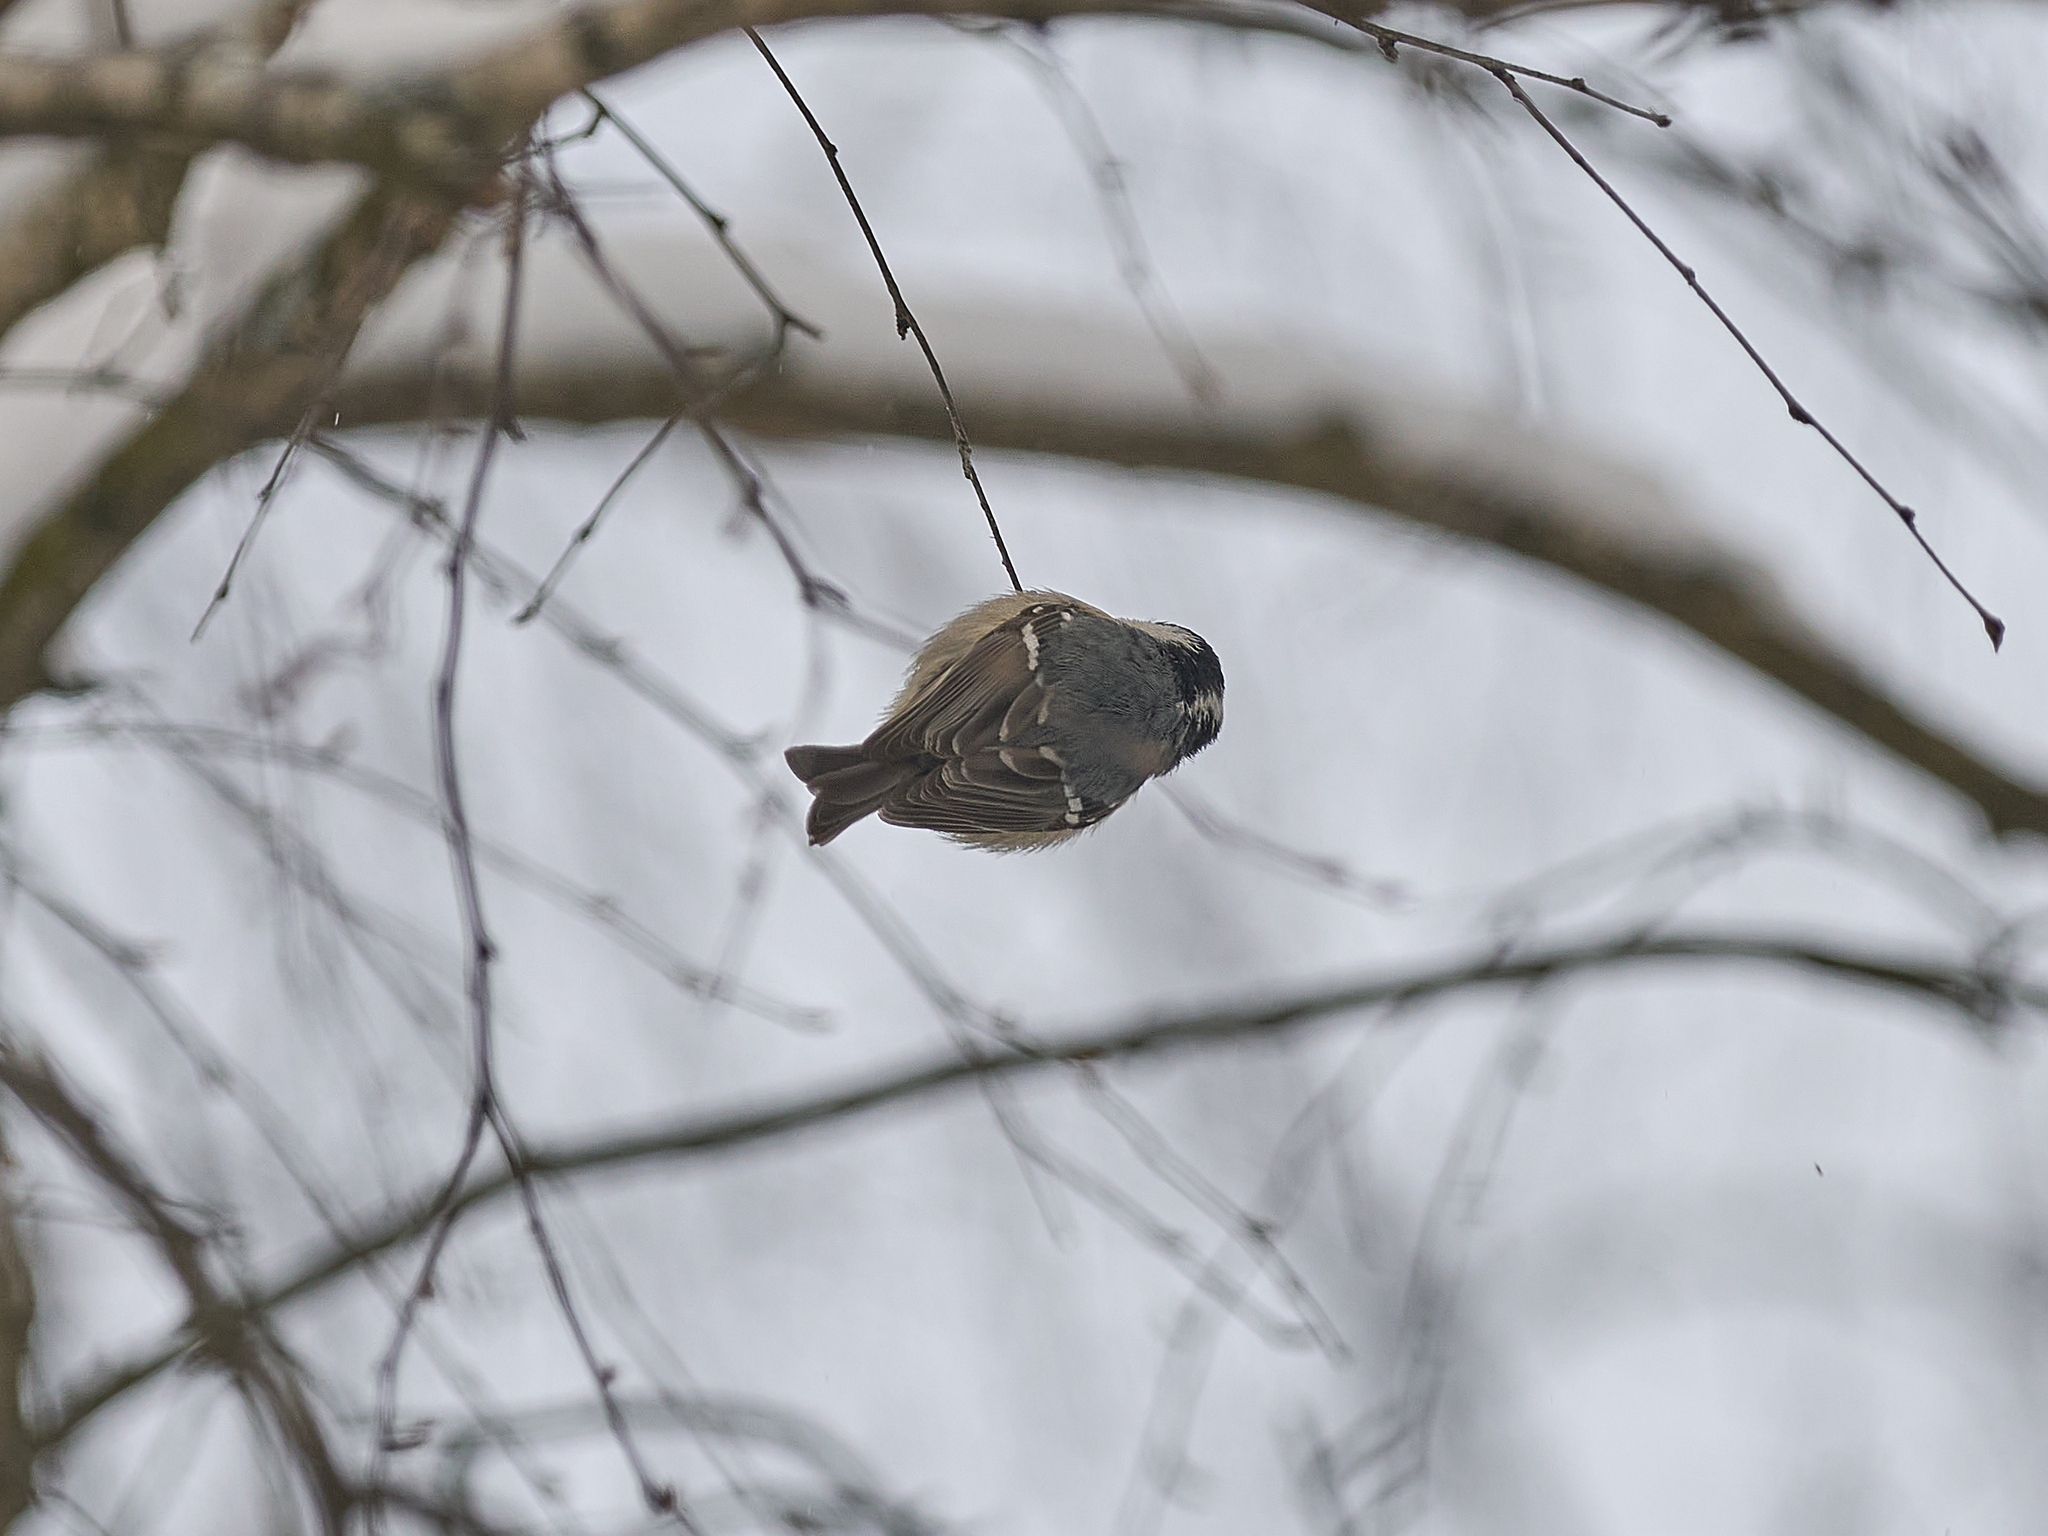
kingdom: Animalia
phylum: Chordata
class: Aves
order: Passeriformes
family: Paridae
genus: Periparus
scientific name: Periparus ater
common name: Coal tit
